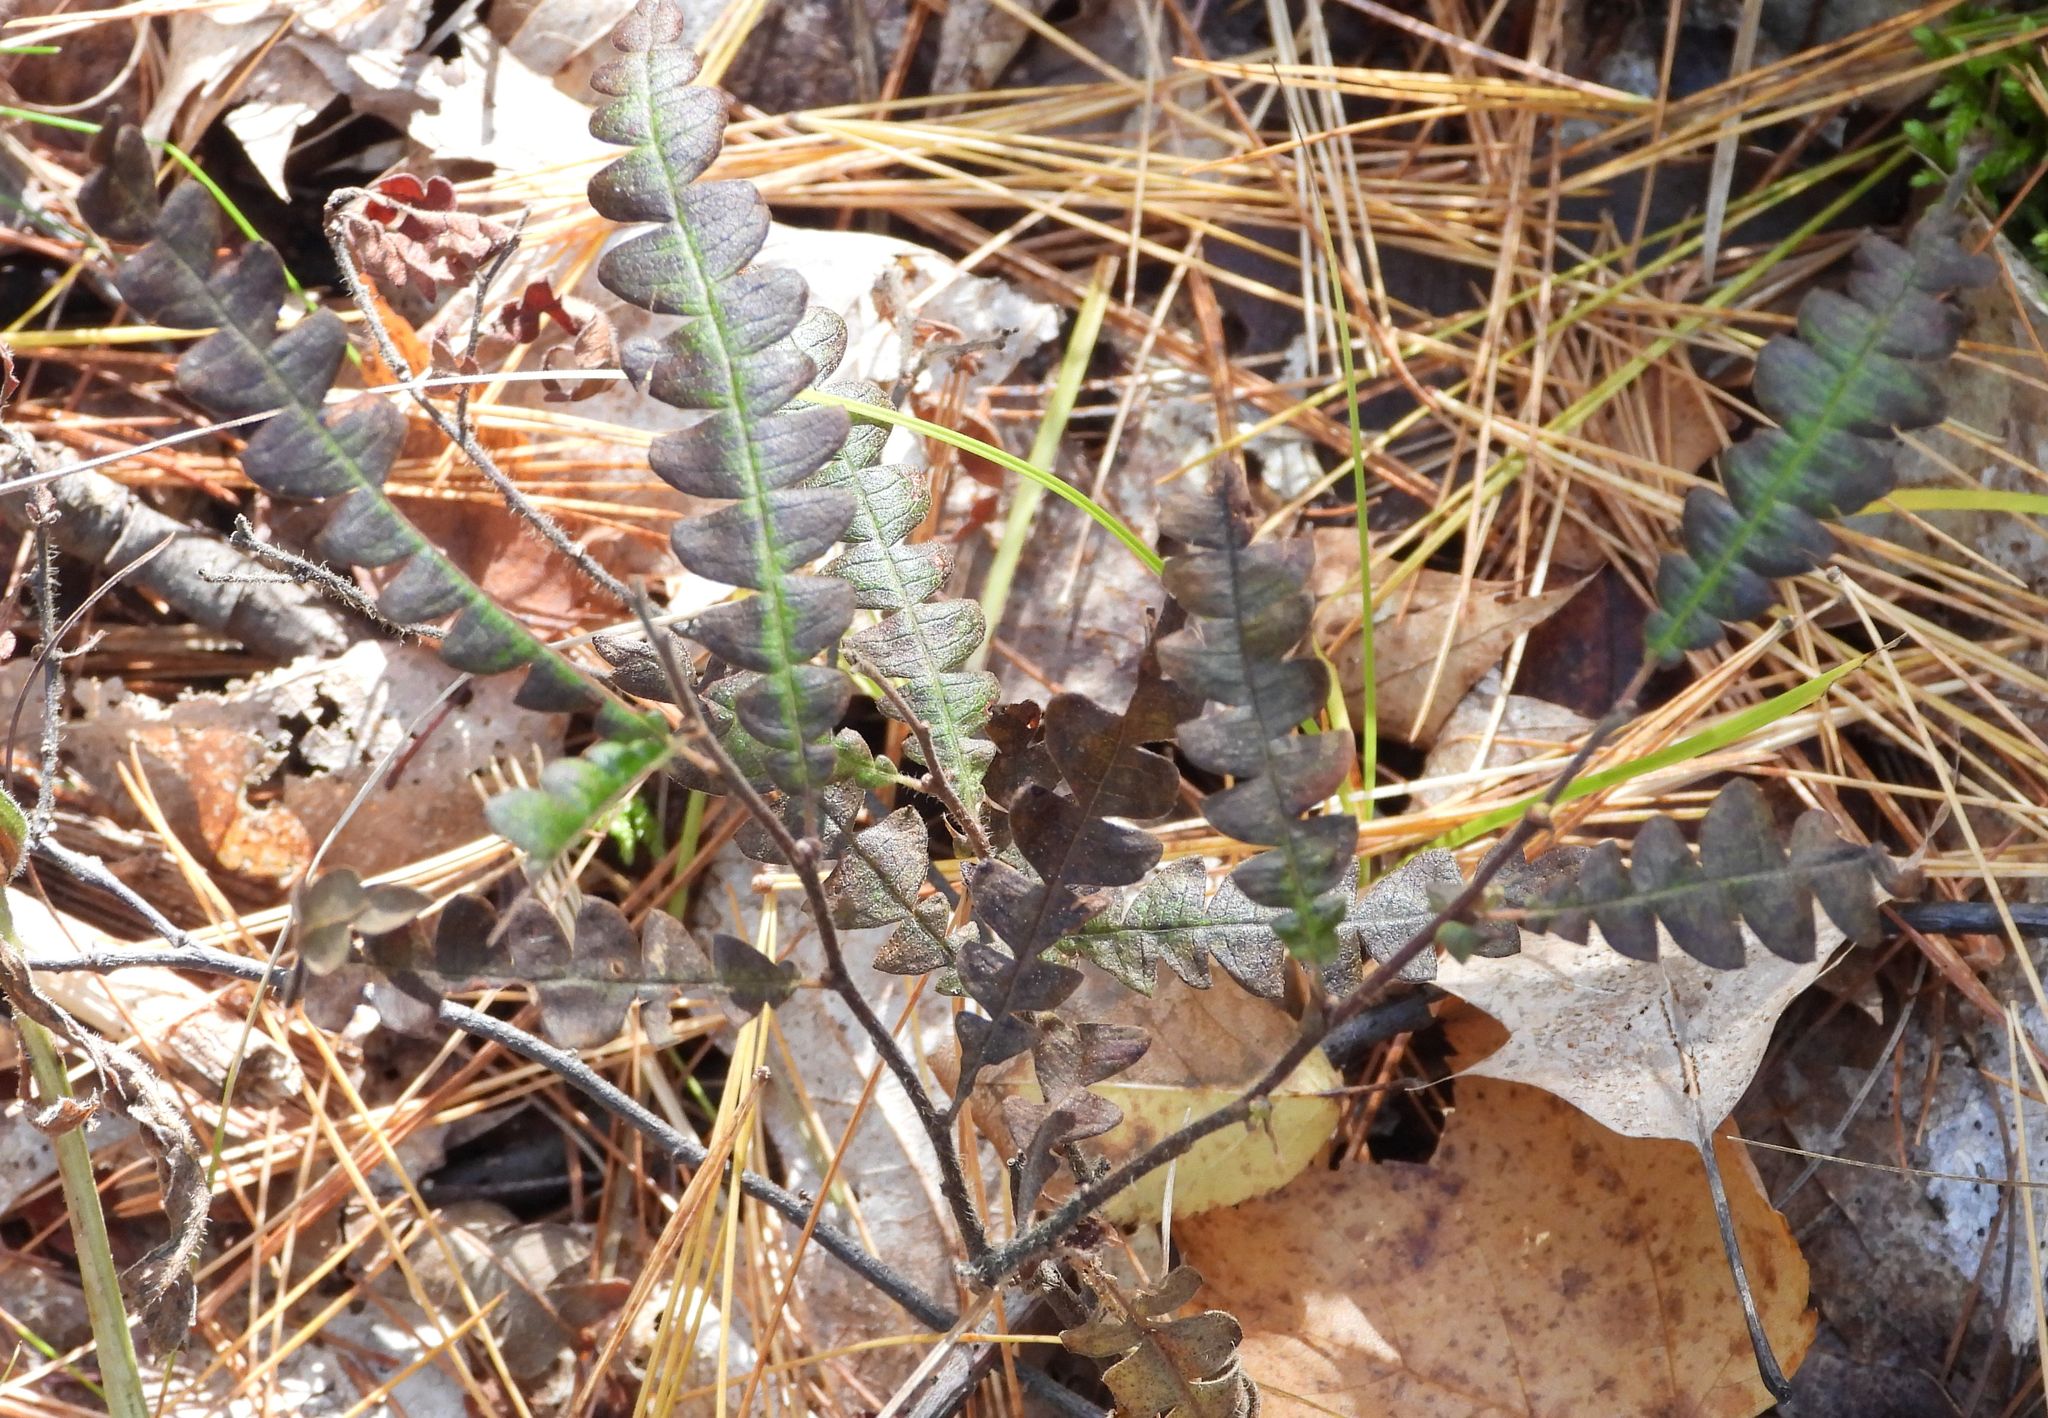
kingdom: Plantae
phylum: Tracheophyta
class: Magnoliopsida
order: Fagales
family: Myricaceae
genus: Comptonia
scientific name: Comptonia peregrina
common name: Sweet-fern
